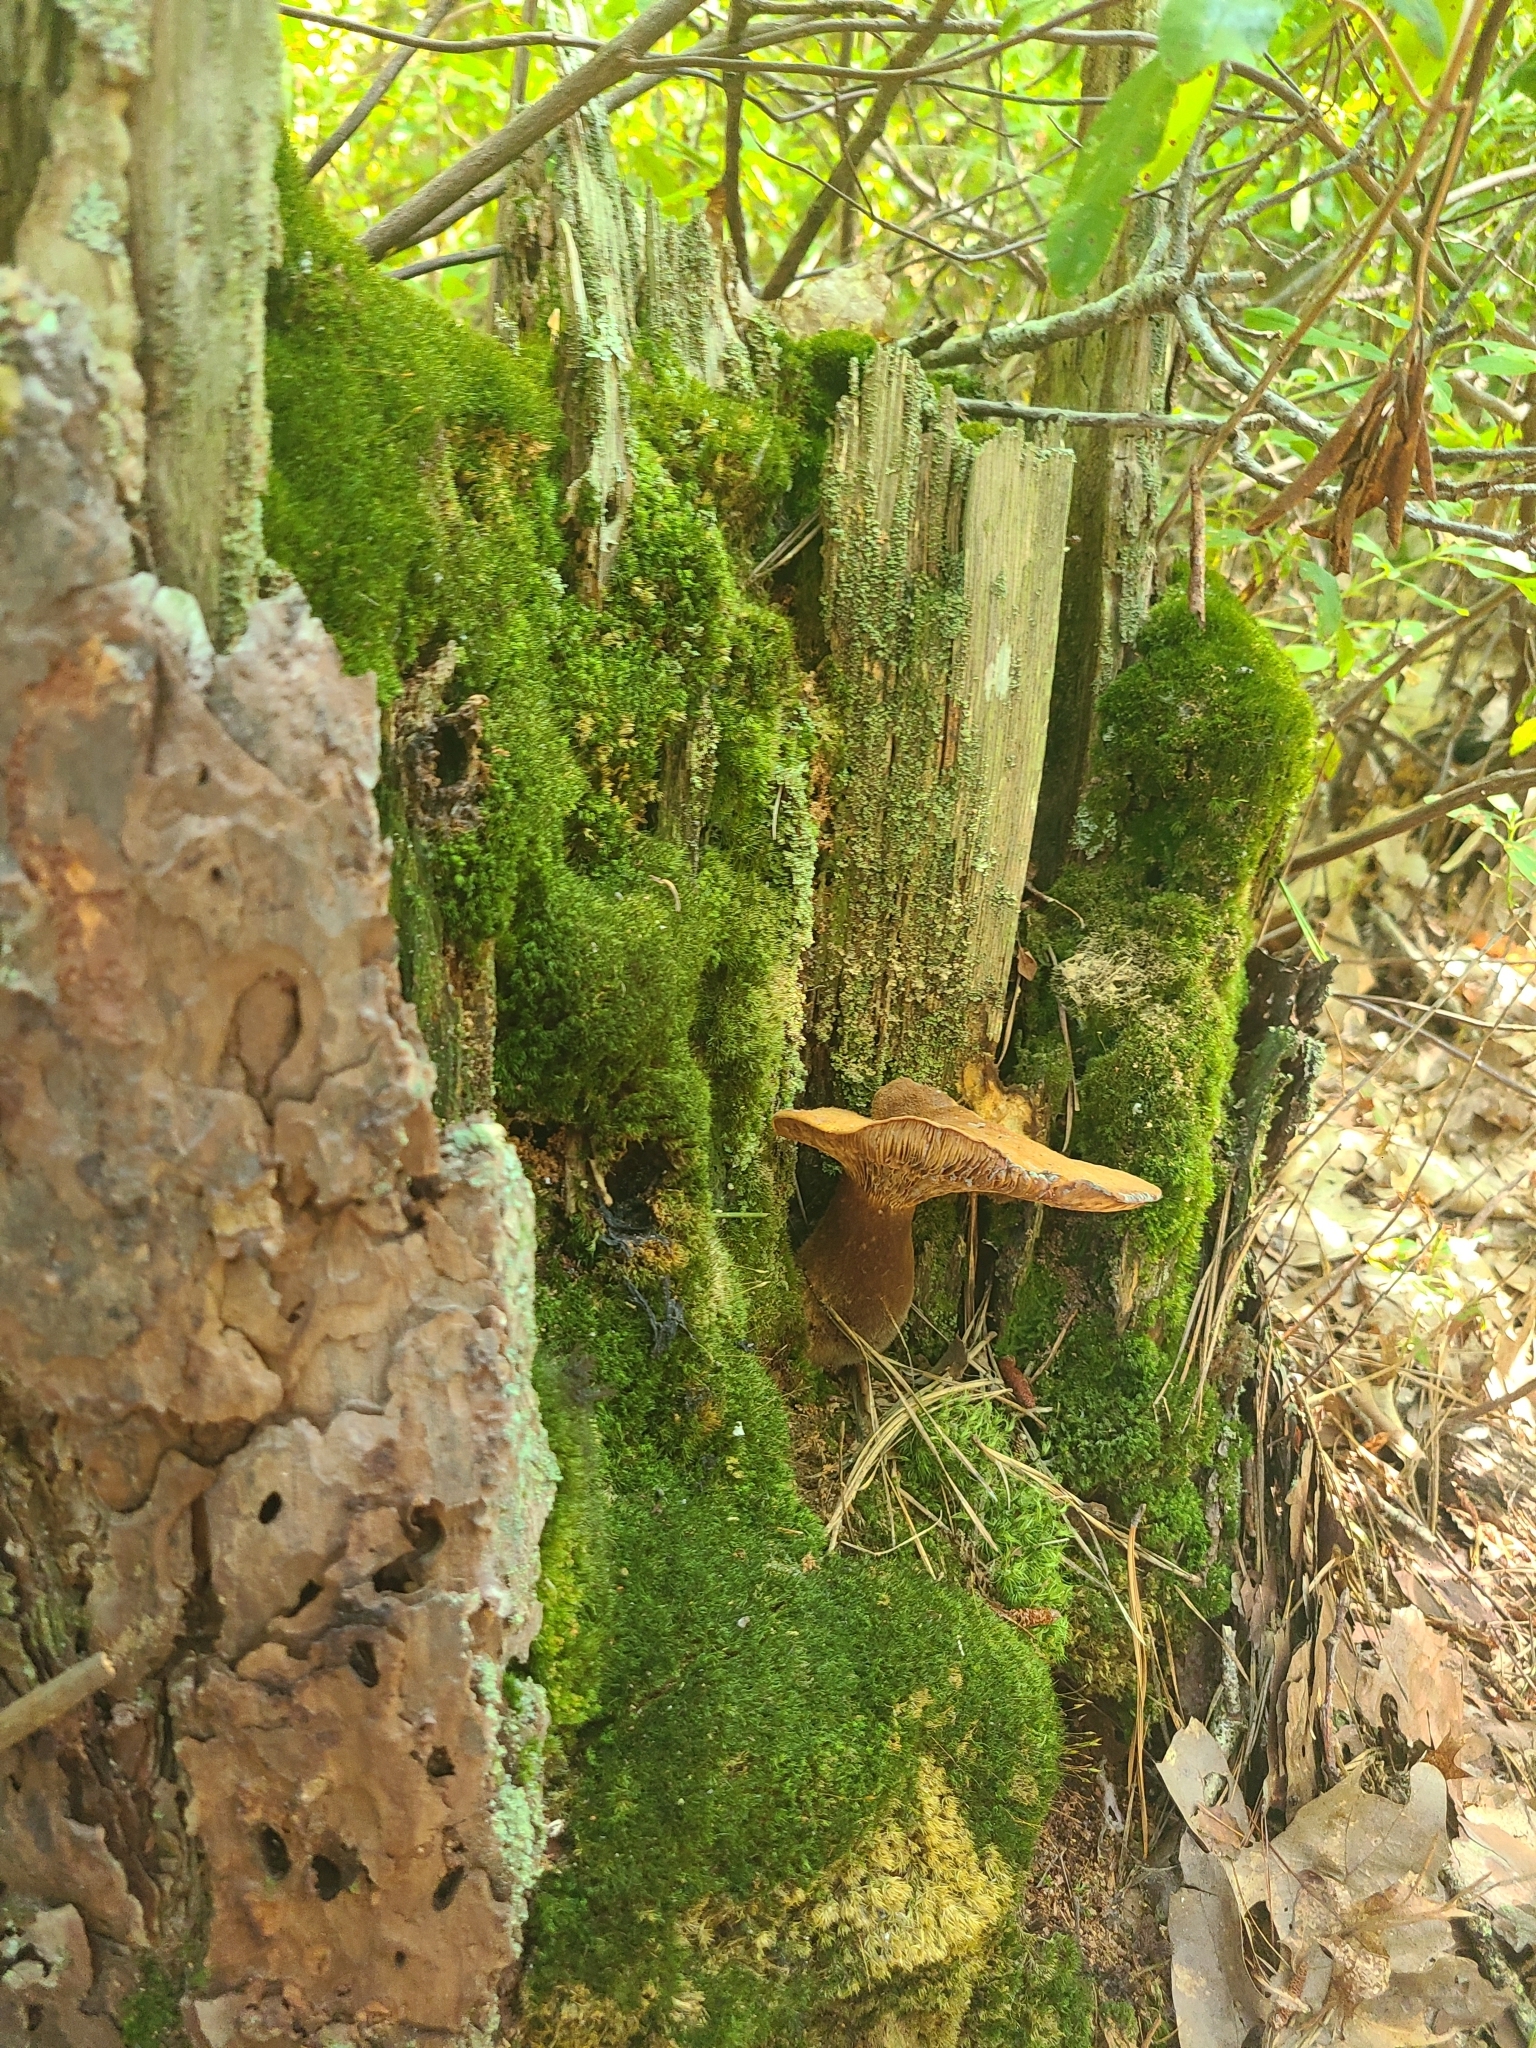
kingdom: Fungi
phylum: Basidiomycota
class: Agaricomycetes
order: Boletales
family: Tapinellaceae
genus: Tapinella
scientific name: Tapinella atrotomentosa
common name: Velvet rollrim
